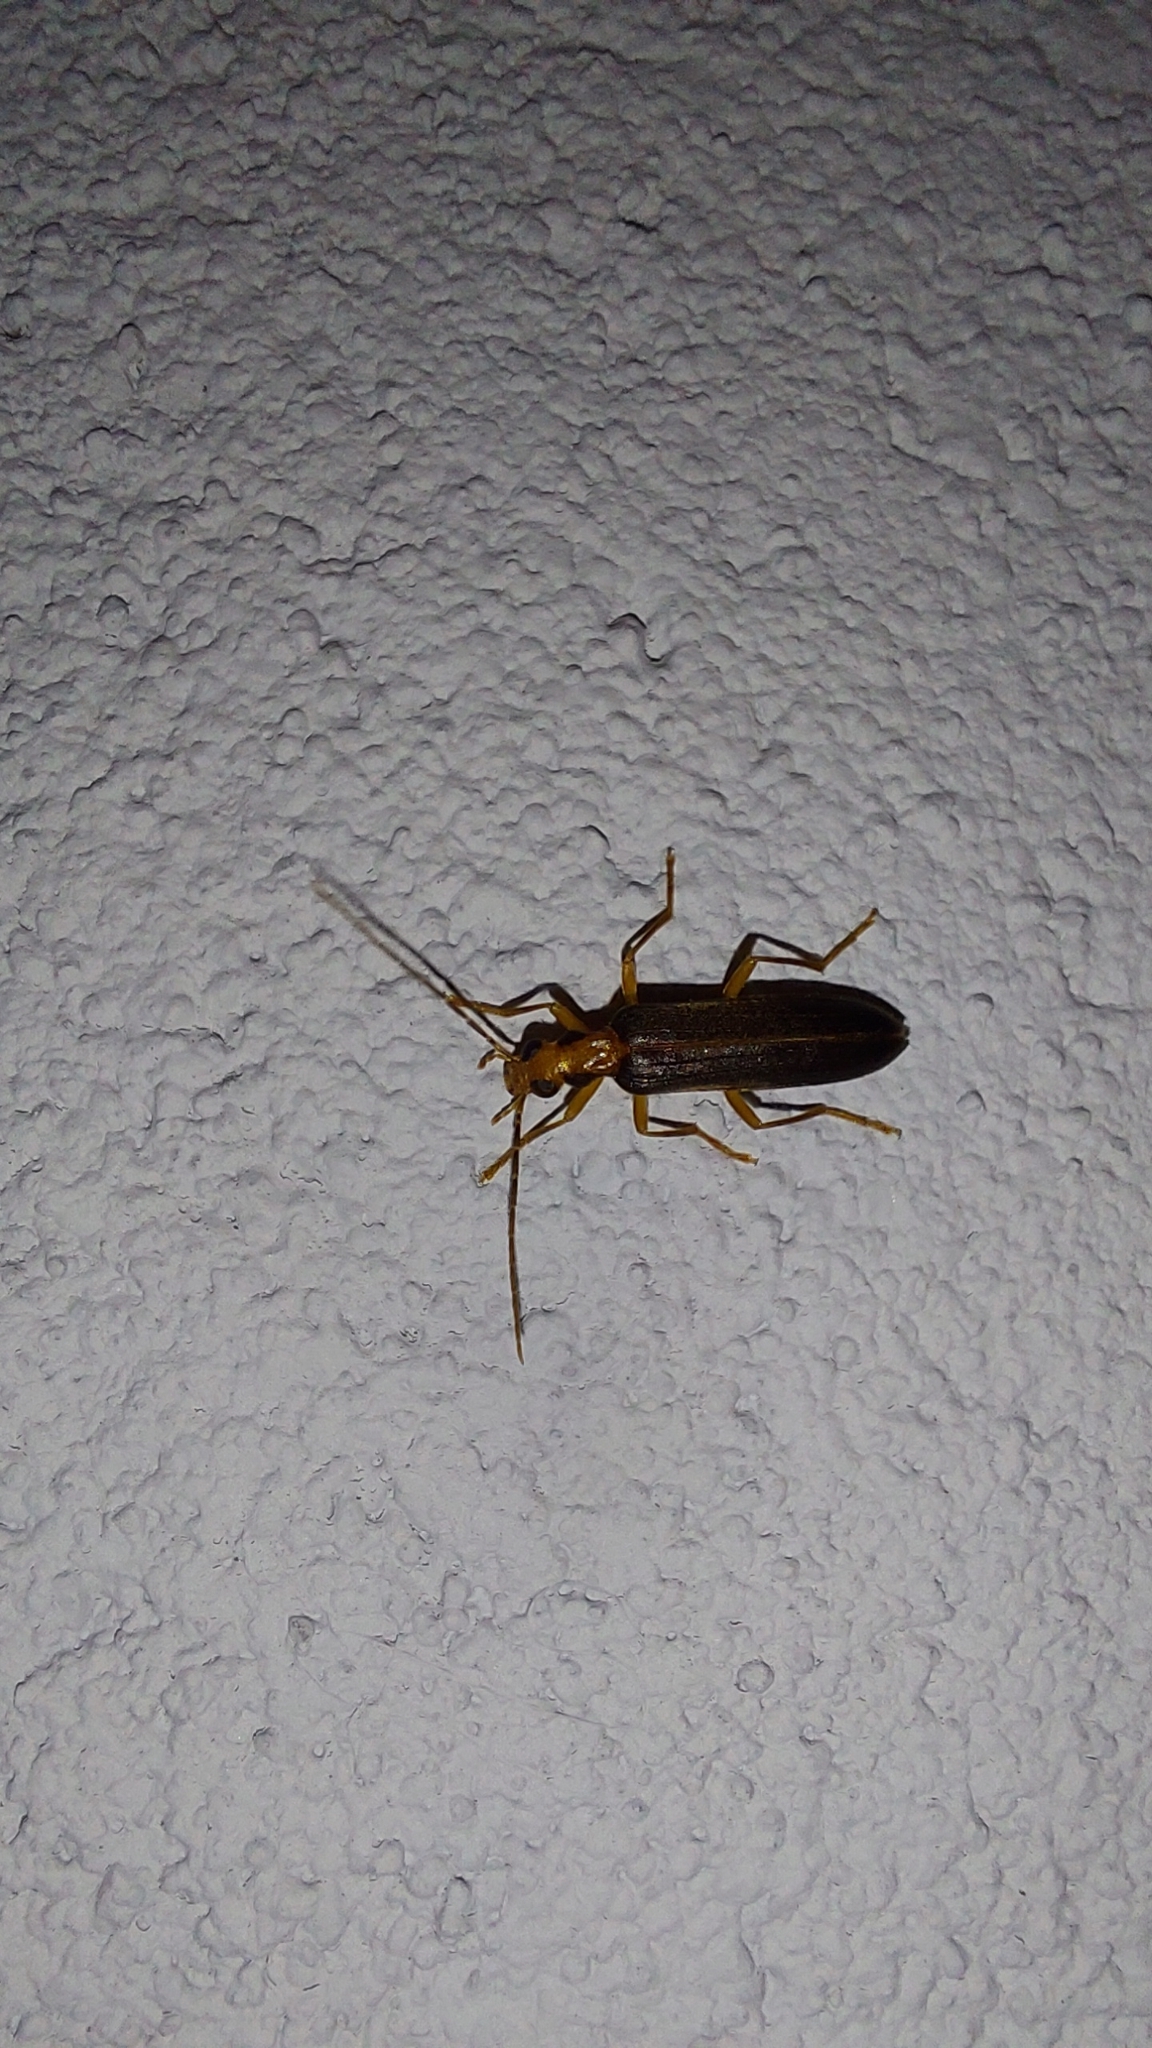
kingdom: Animalia
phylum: Arthropoda
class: Insecta
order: Coleoptera
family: Oedemeridae
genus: Nacerdes
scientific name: Nacerdes carniolica
